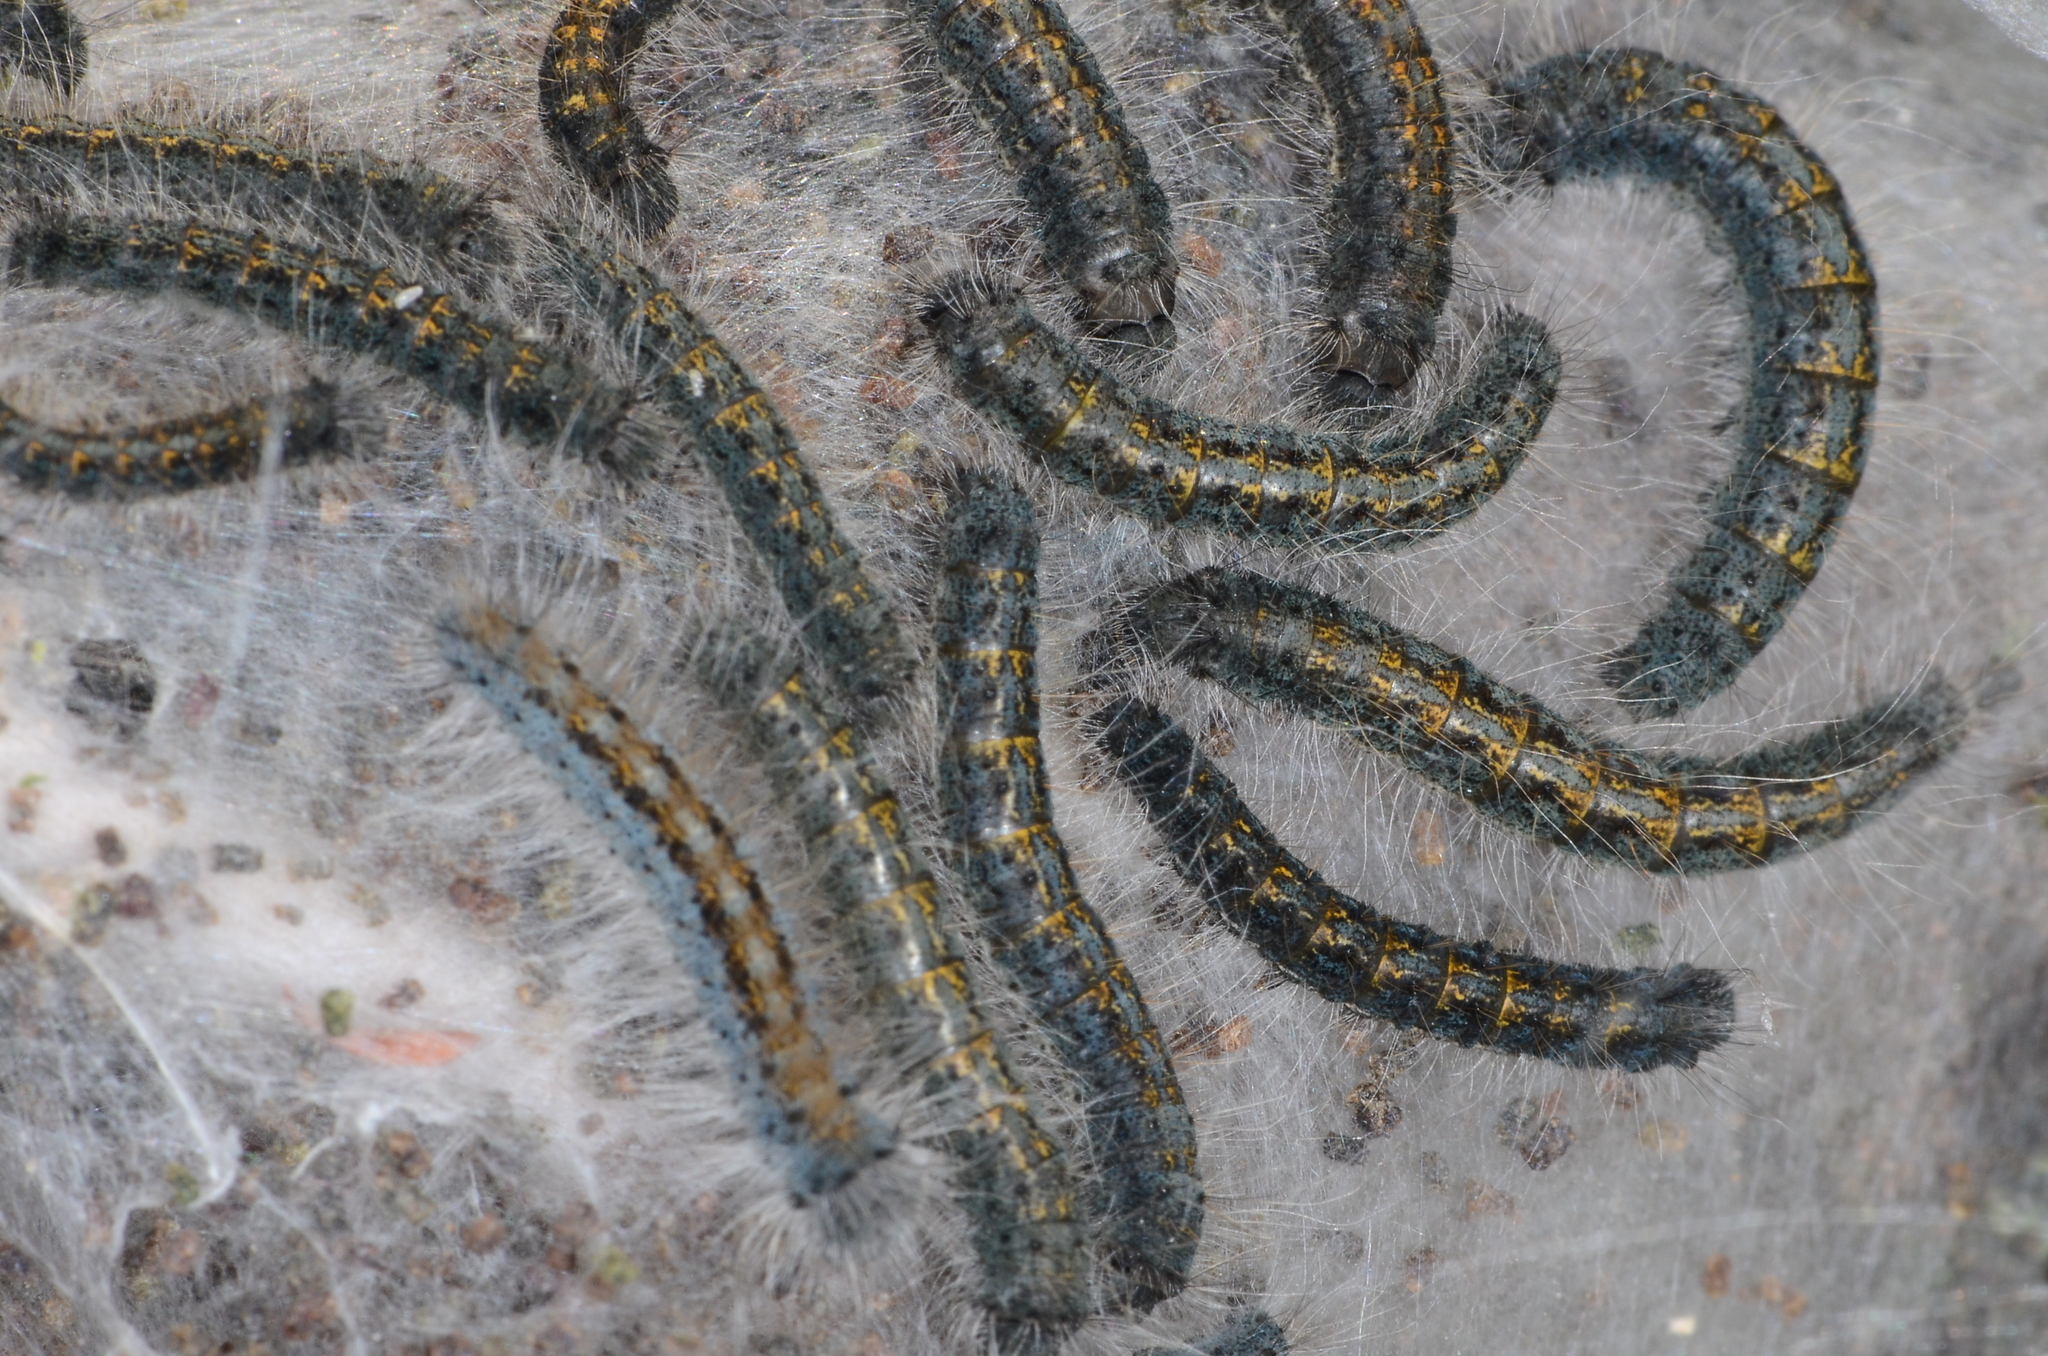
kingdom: Animalia
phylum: Arthropoda
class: Insecta
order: Lepidoptera
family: Lasiocampidae
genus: Malacosoma
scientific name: Malacosoma californica
